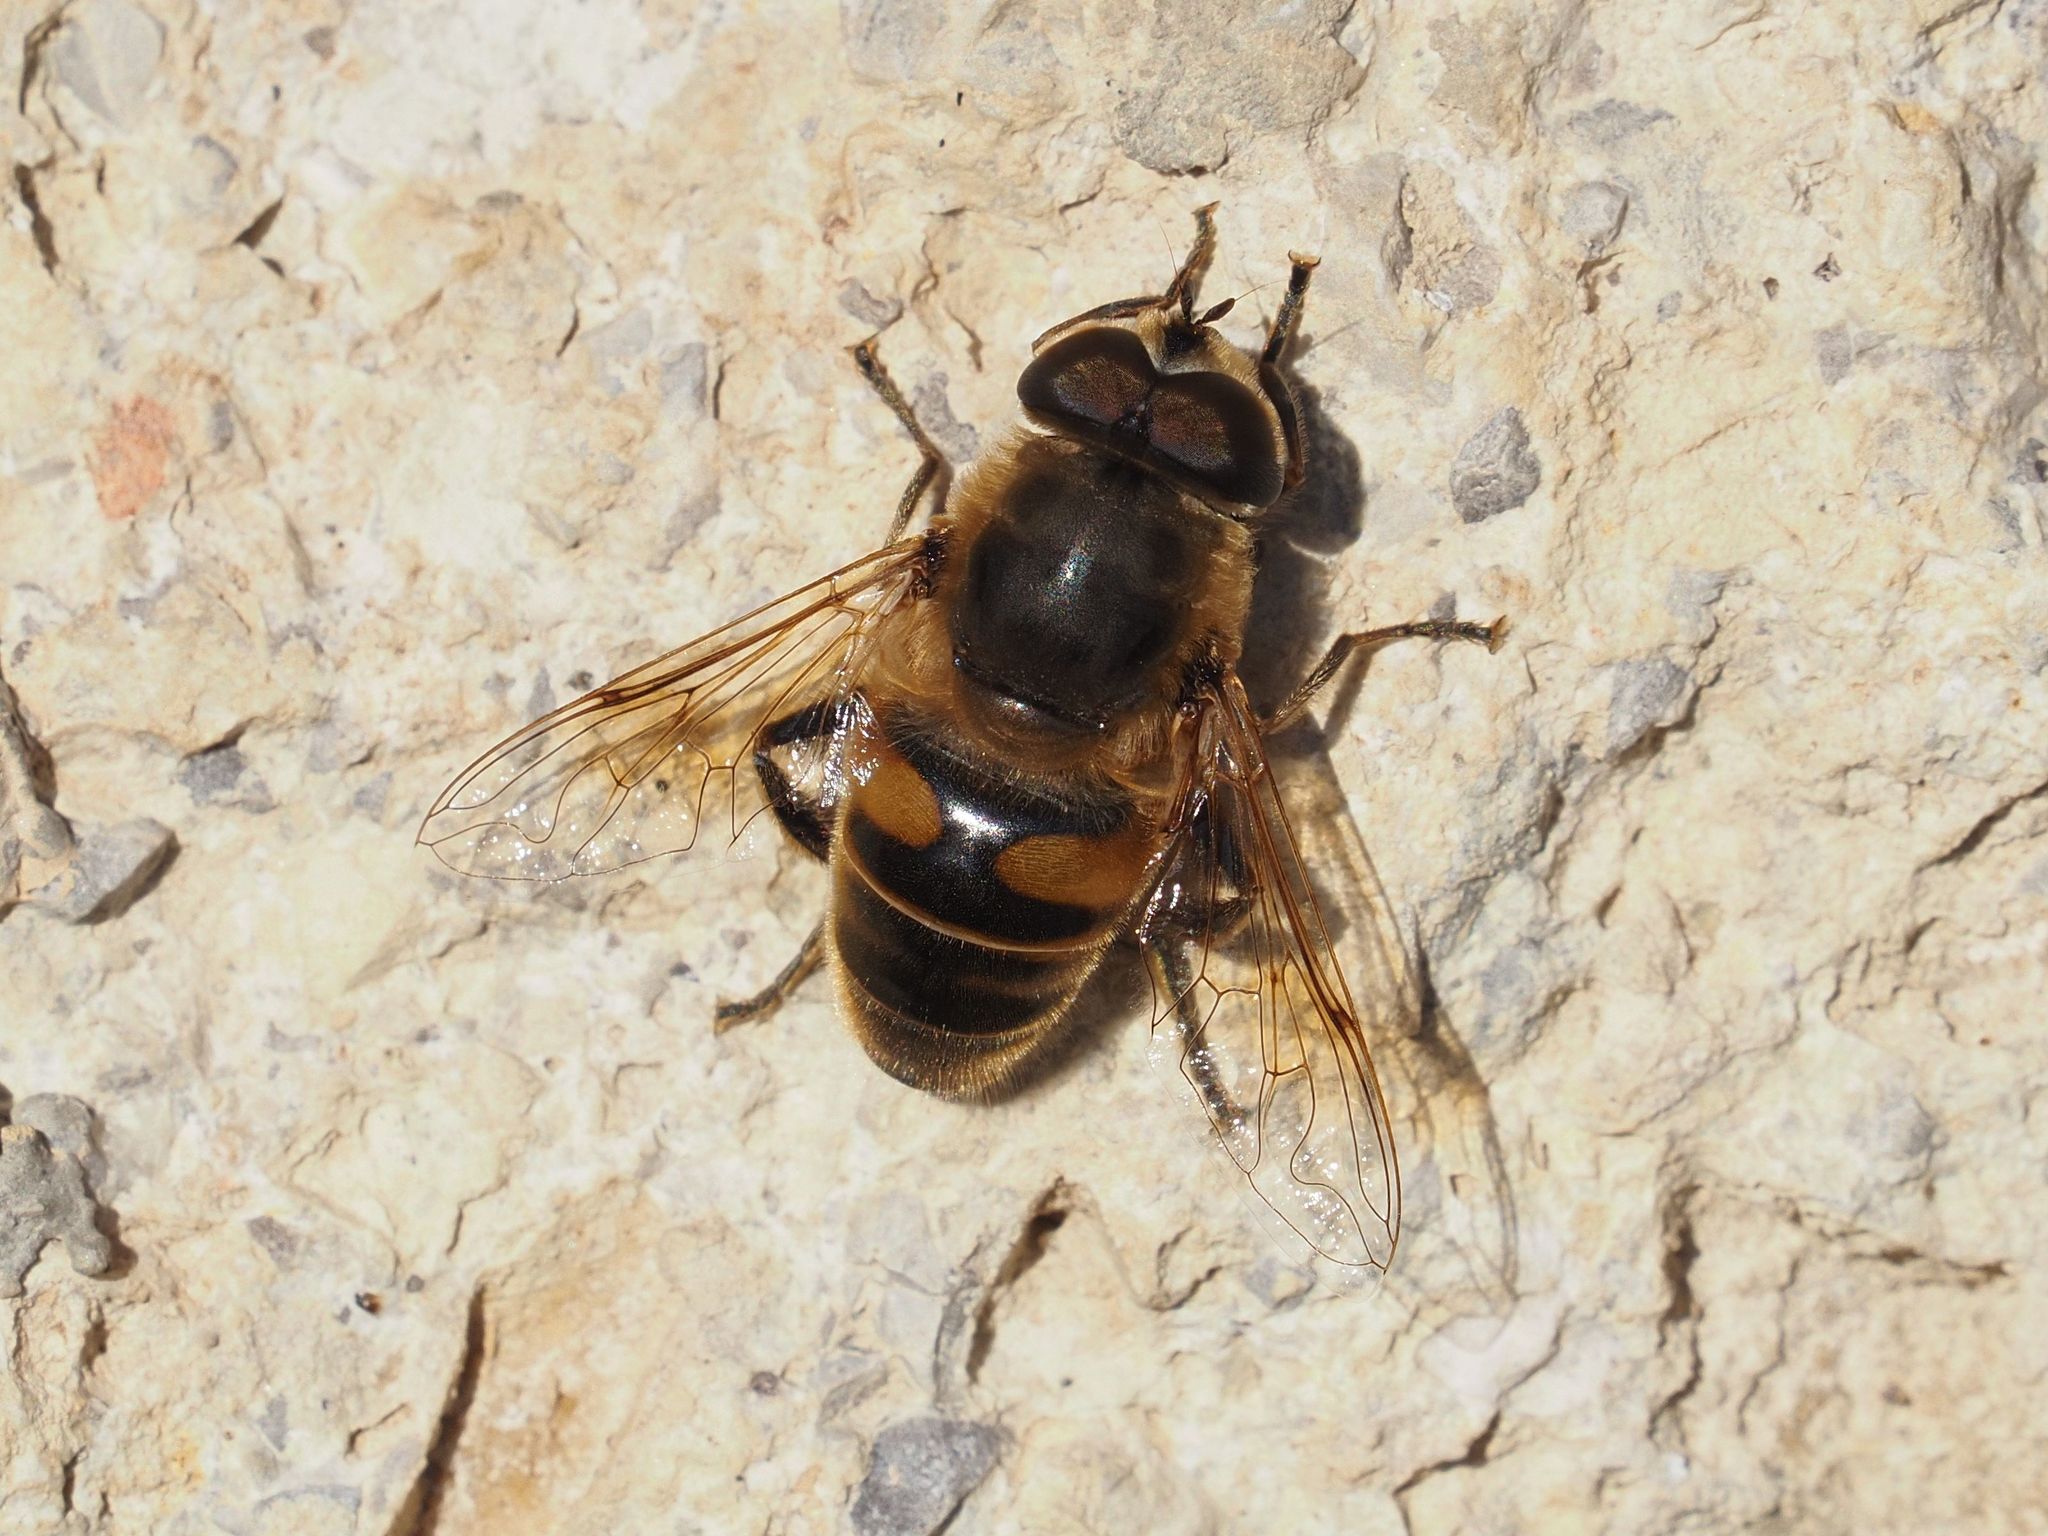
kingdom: Animalia
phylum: Arthropoda
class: Insecta
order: Diptera
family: Syrphidae
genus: Eristalis
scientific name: Eristalis tenax
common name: Drone fly
